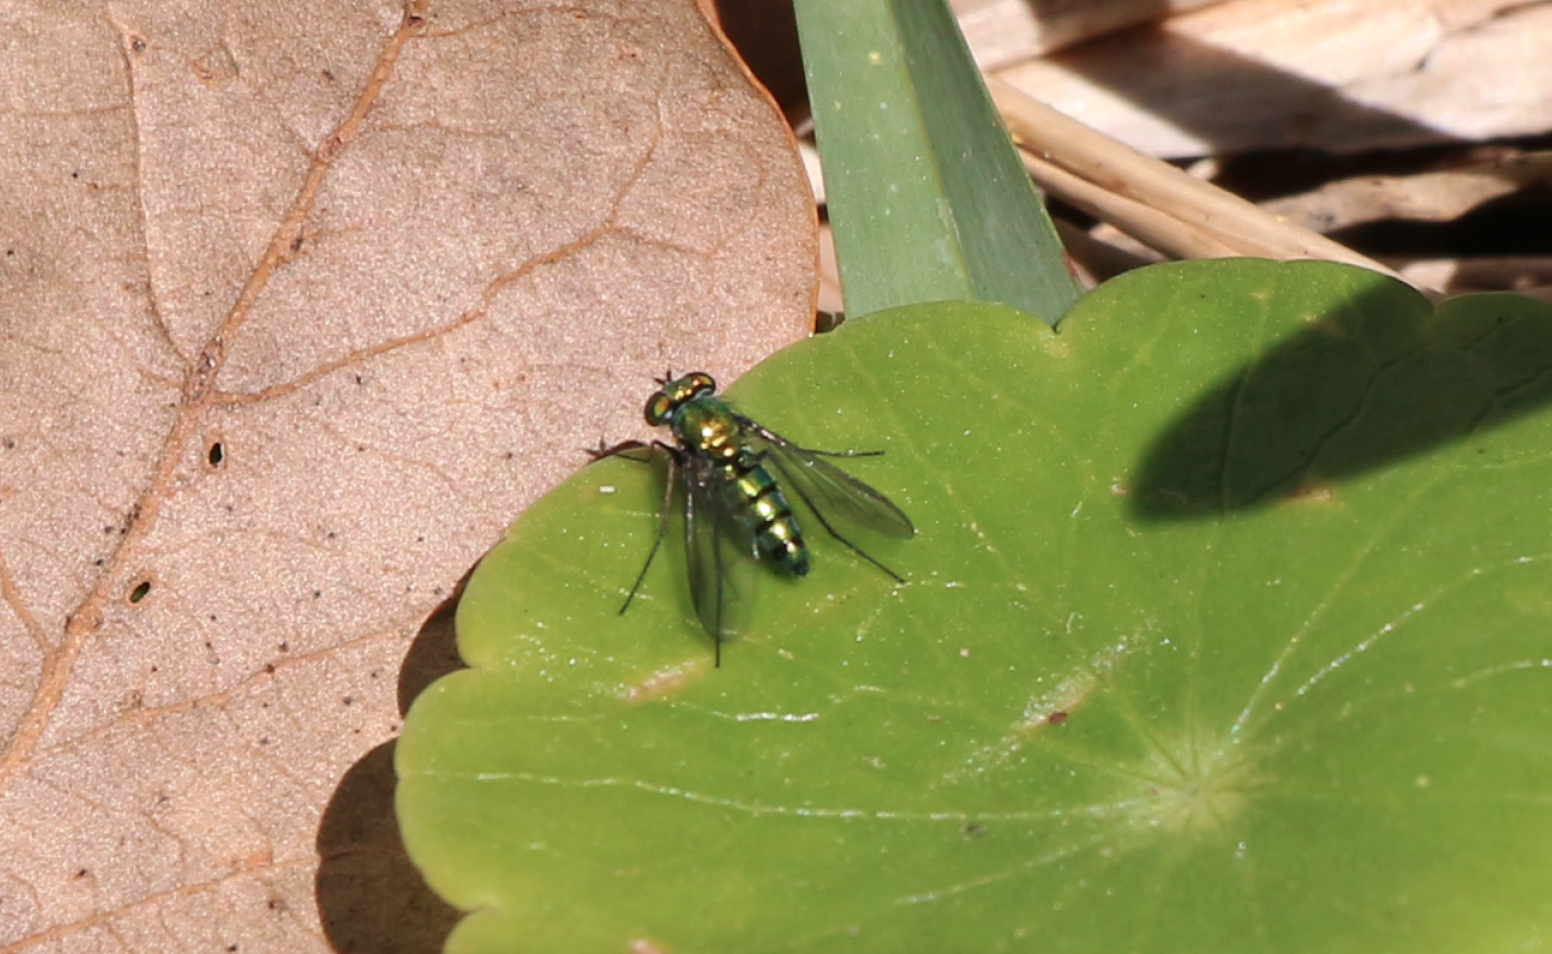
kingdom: Animalia
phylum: Arthropoda
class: Insecta
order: Diptera
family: Dolichopodidae
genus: Condylostylus
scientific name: Condylostylus longicornis
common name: Long-legged fly
